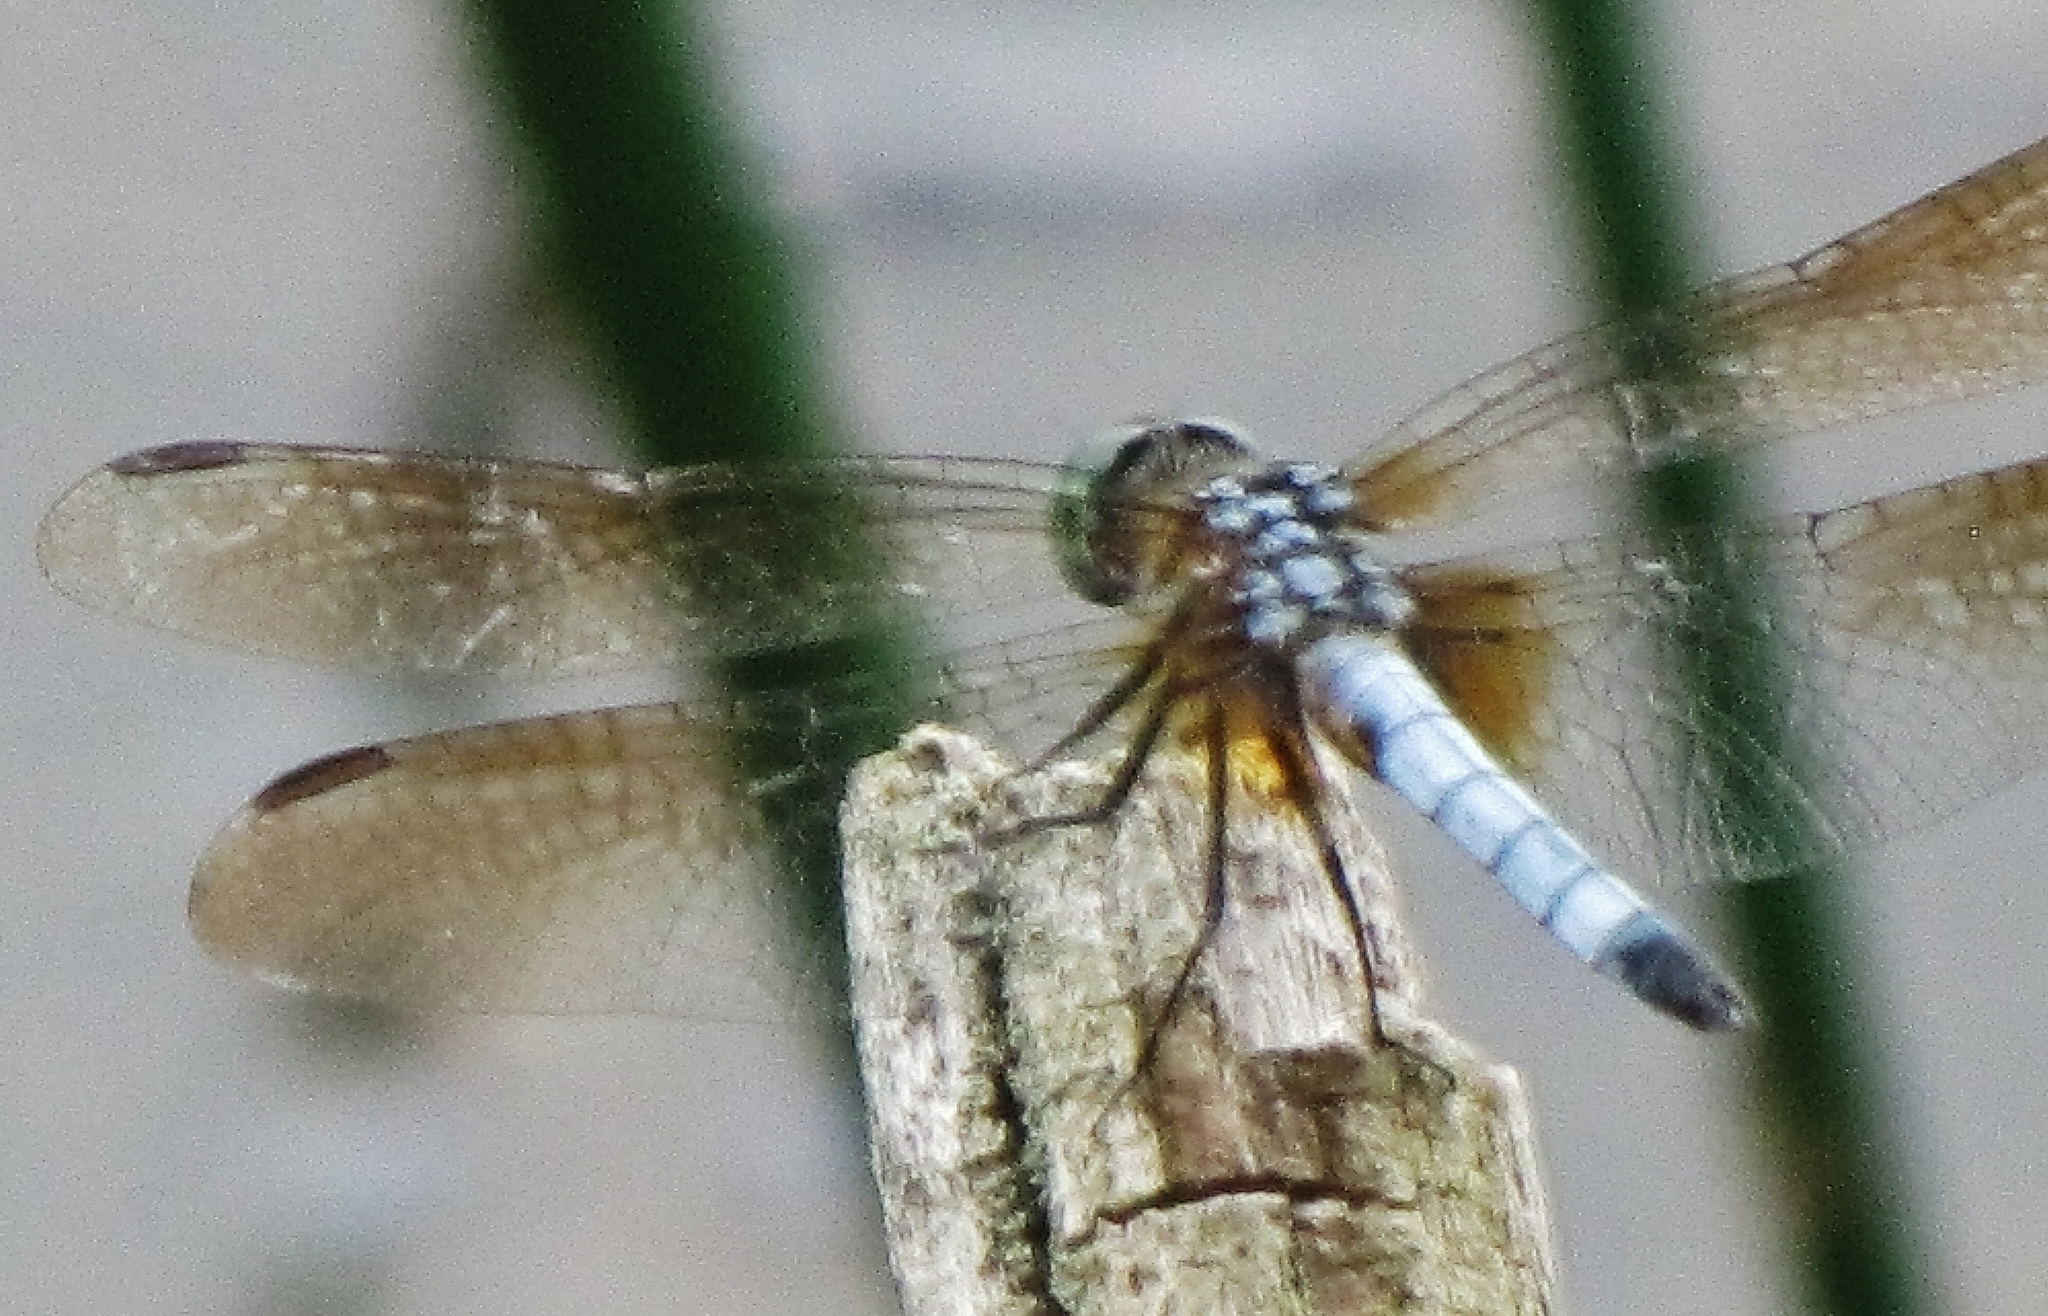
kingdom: Animalia
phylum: Arthropoda
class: Insecta
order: Odonata
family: Libellulidae
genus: Pachydiplax
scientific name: Pachydiplax longipennis
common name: Blue dasher
